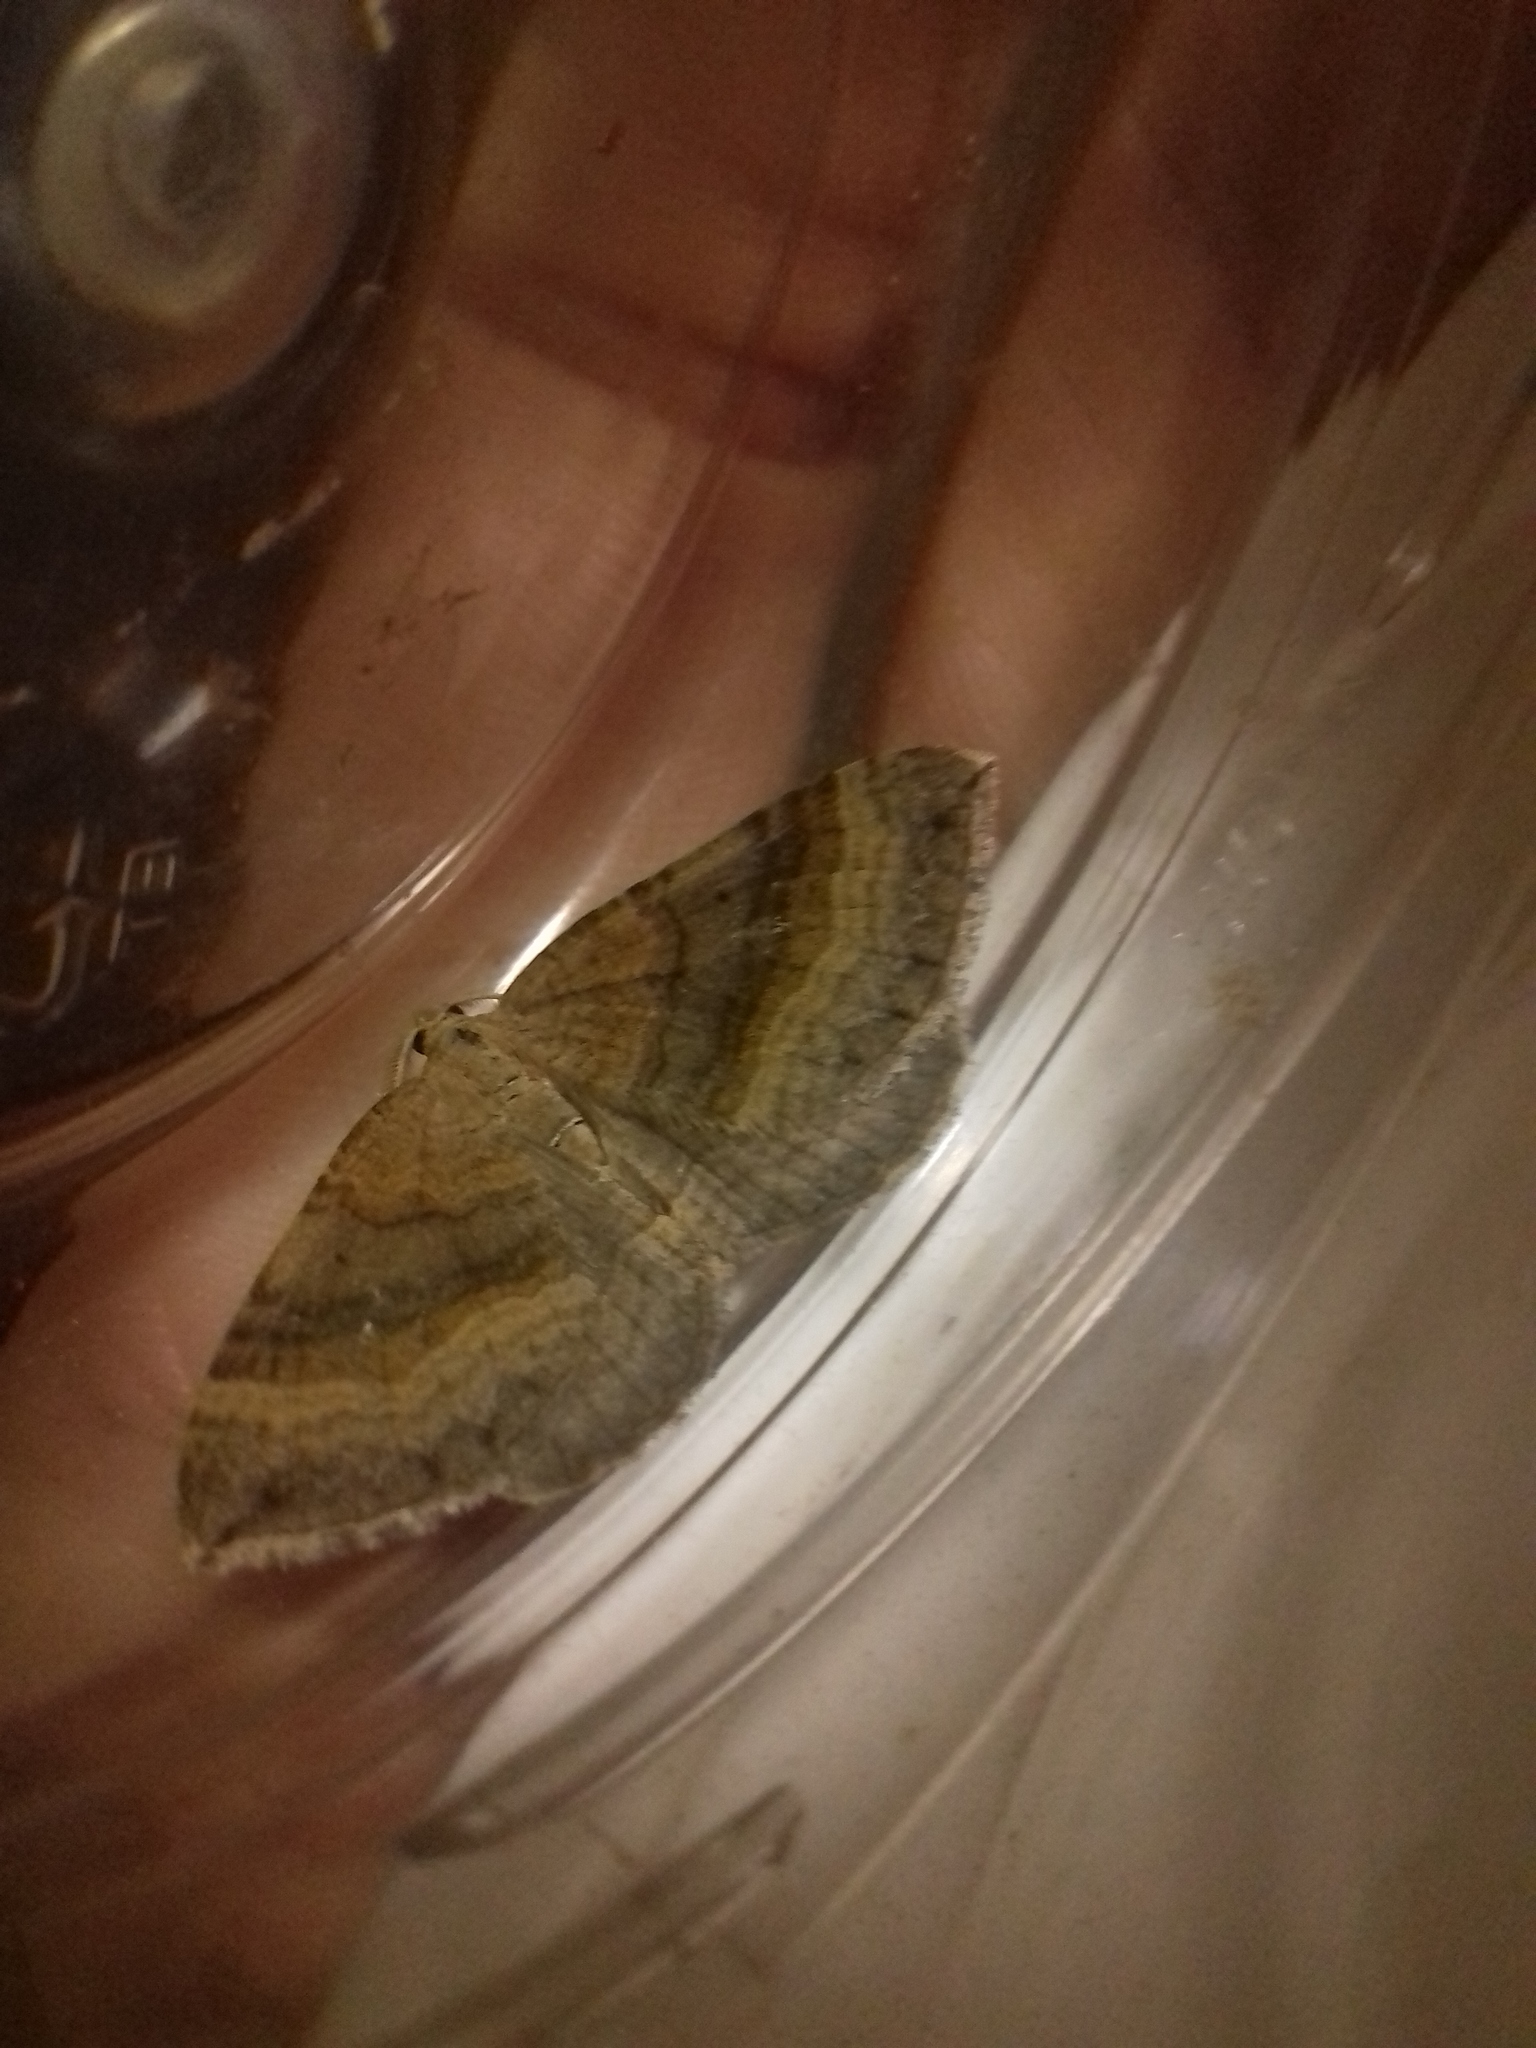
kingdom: Animalia
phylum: Arthropoda
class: Insecta
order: Lepidoptera
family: Geometridae
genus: Scotopteryx
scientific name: Scotopteryx chenopodiata
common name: Shaded broad-bar
